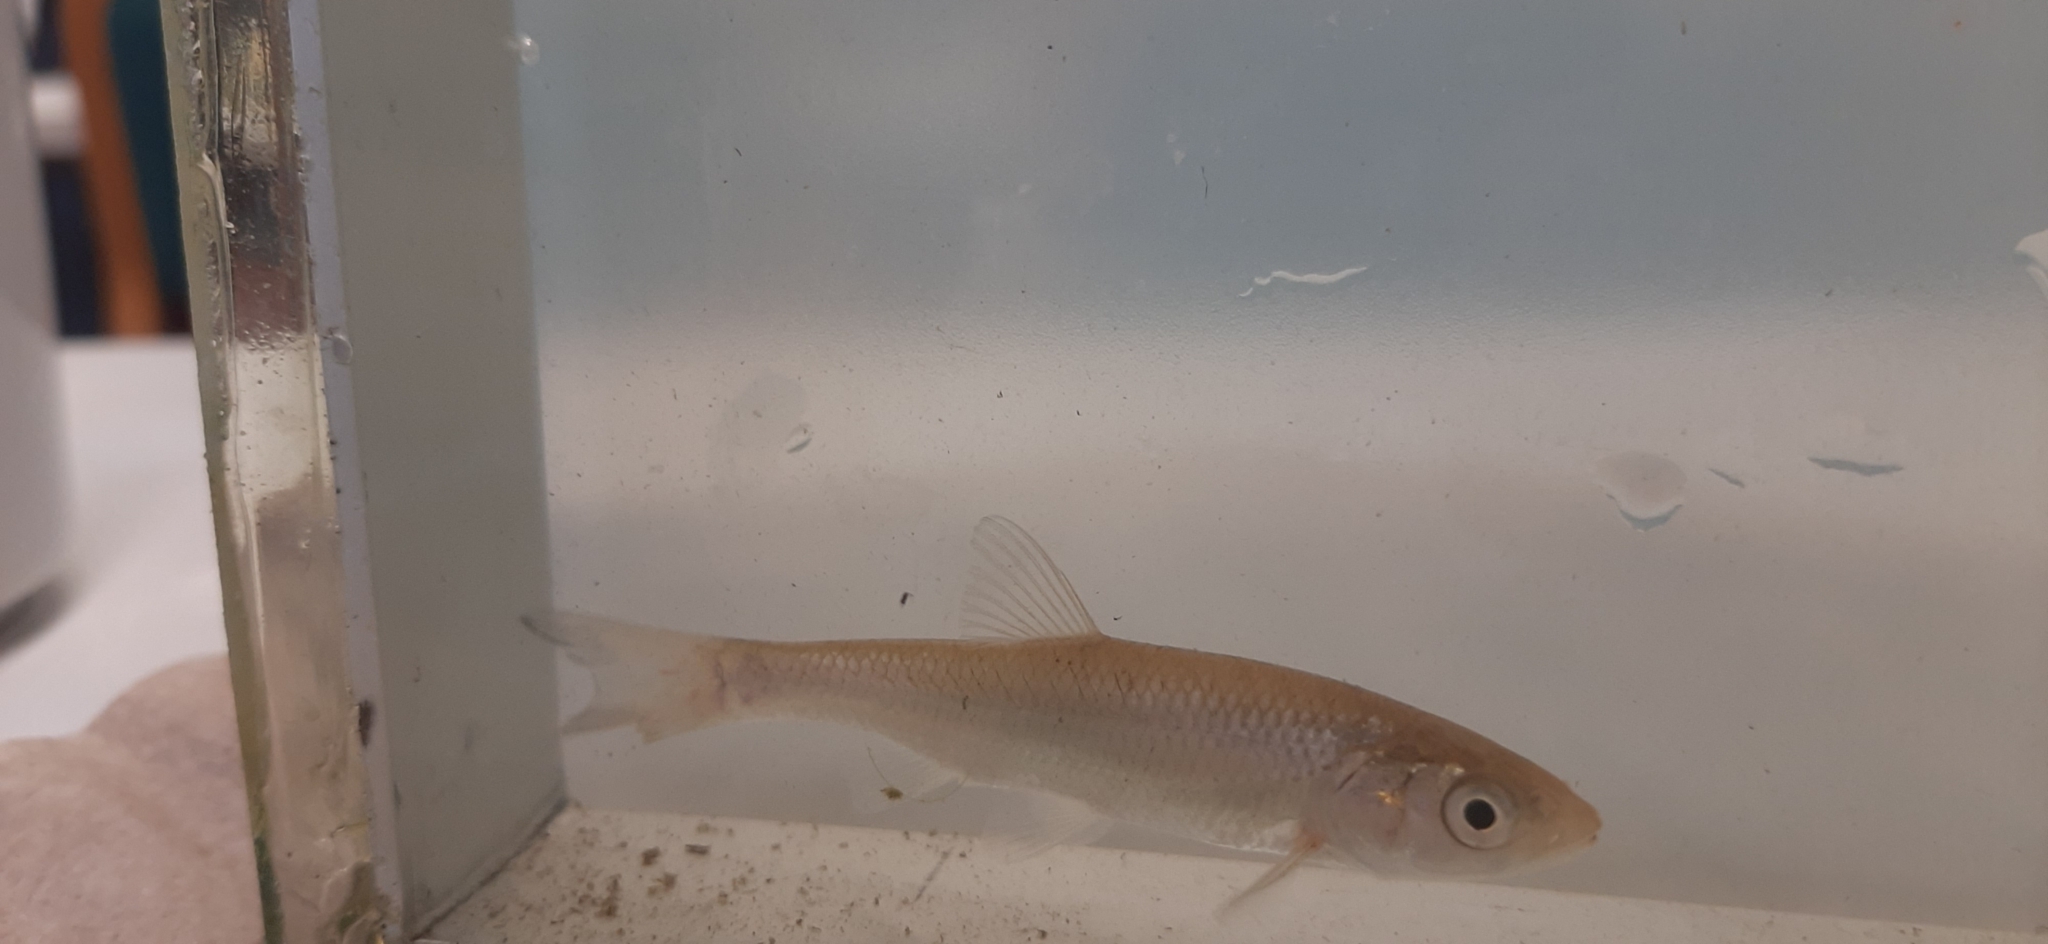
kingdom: Animalia
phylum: Chordata
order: Cypriniformes
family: Cyprinidae
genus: Squalius
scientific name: Squalius cephalus
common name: Chub
